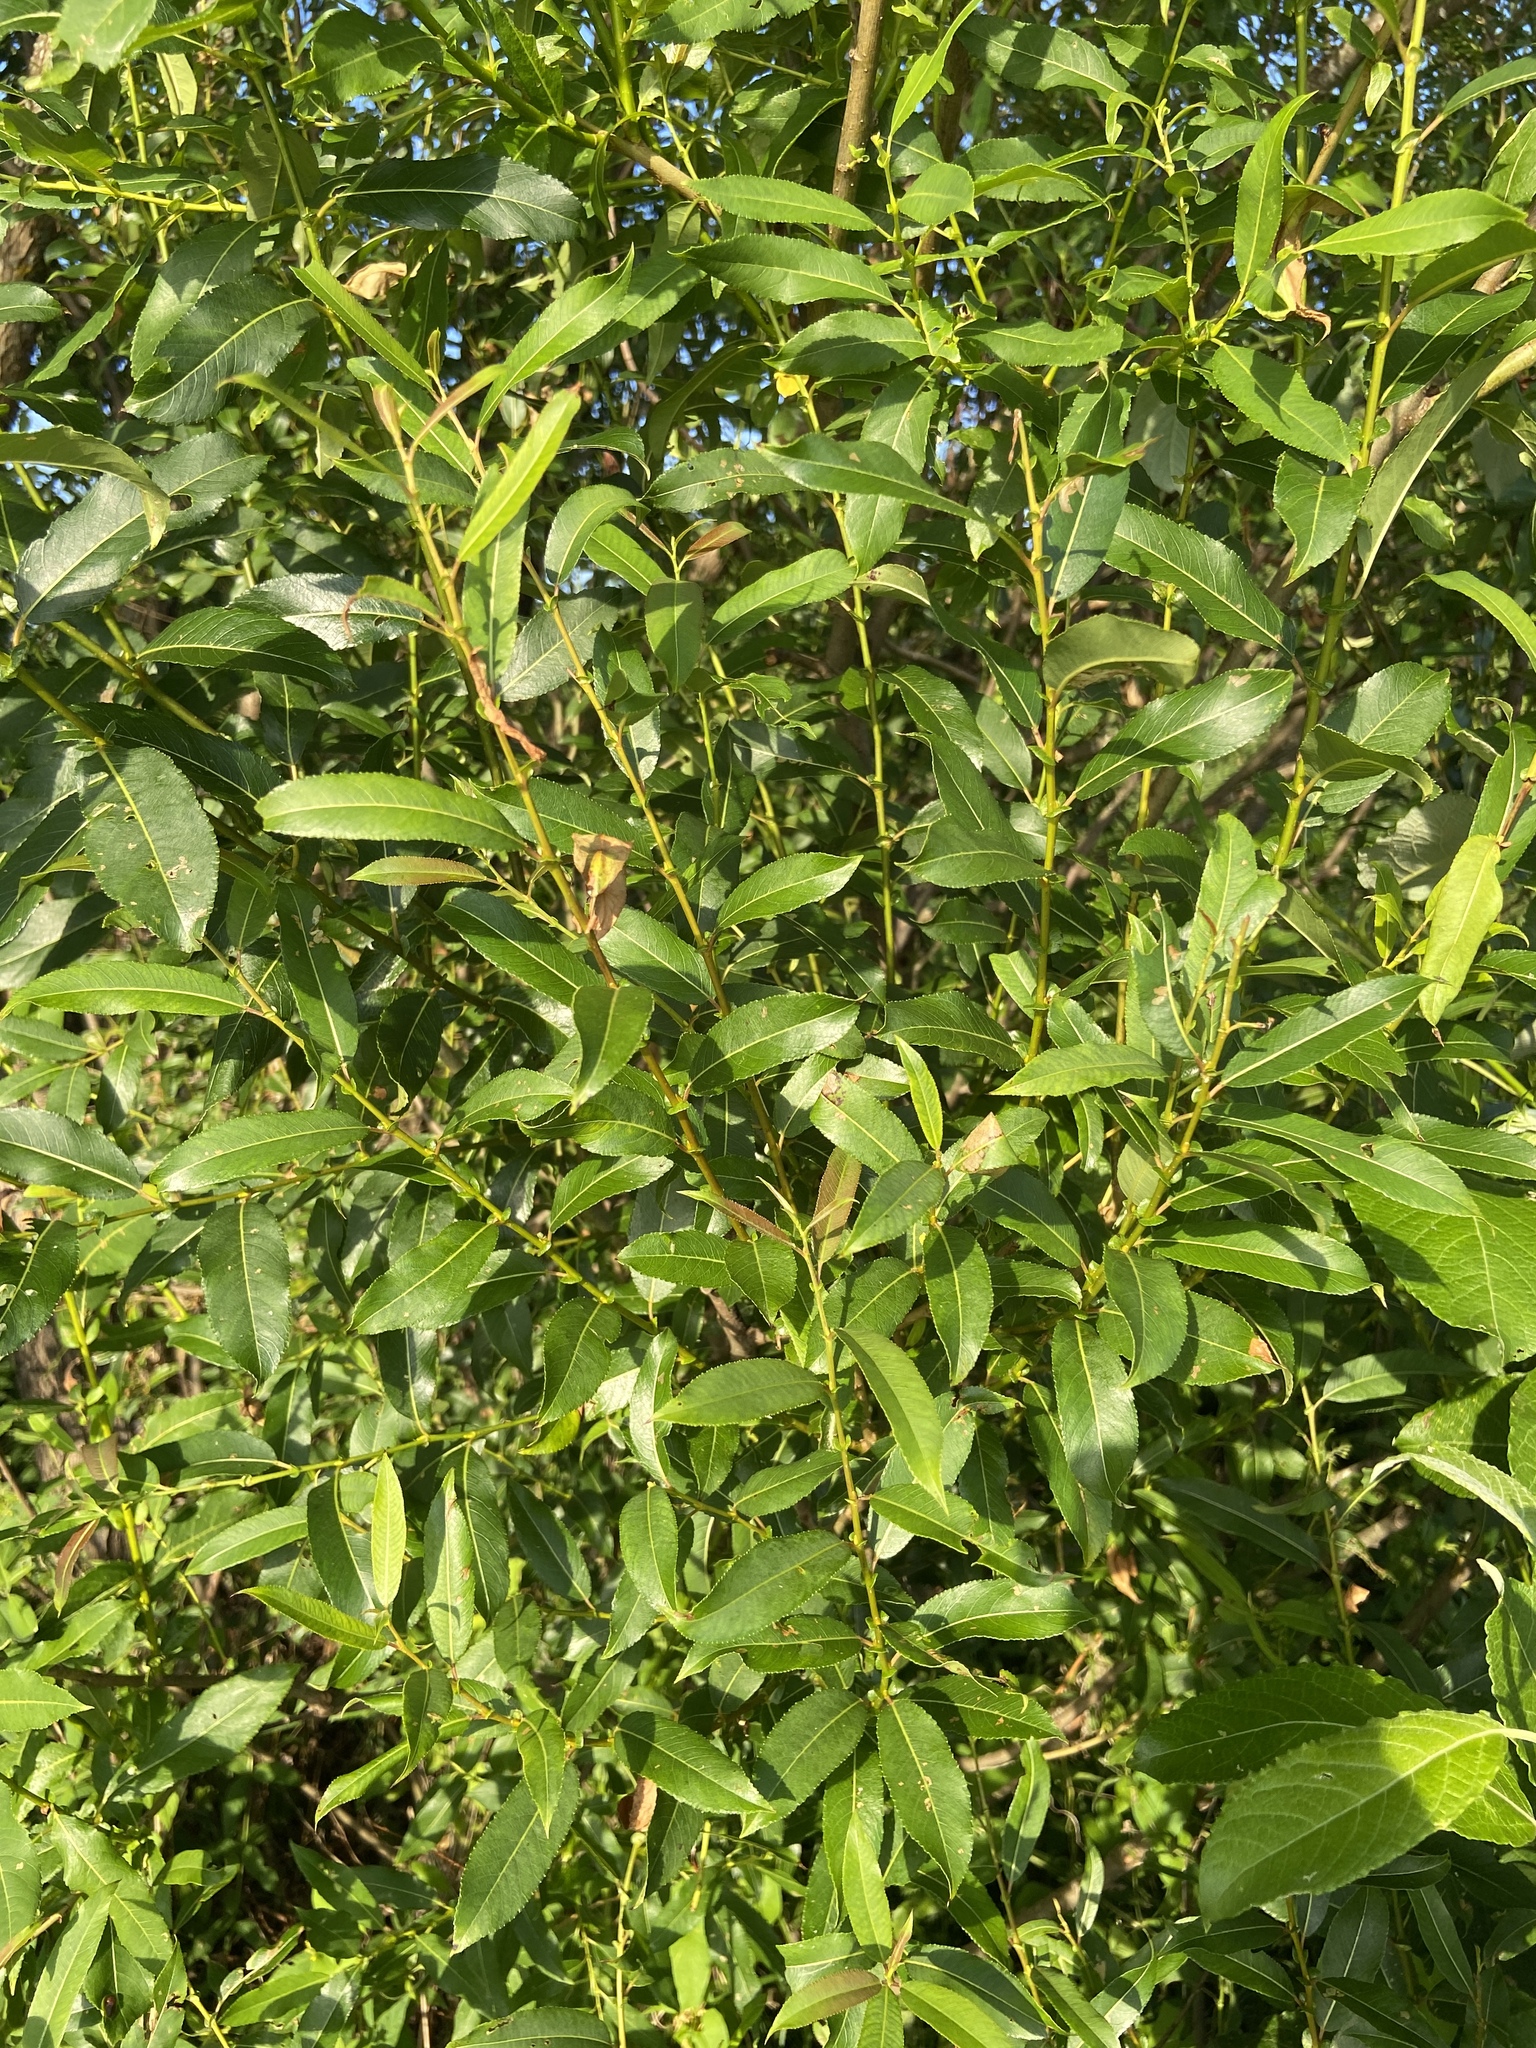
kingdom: Plantae
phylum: Tracheophyta
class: Magnoliopsida
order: Malpighiales
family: Salicaceae
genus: Salix
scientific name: Salix triandra
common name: Almond willow
